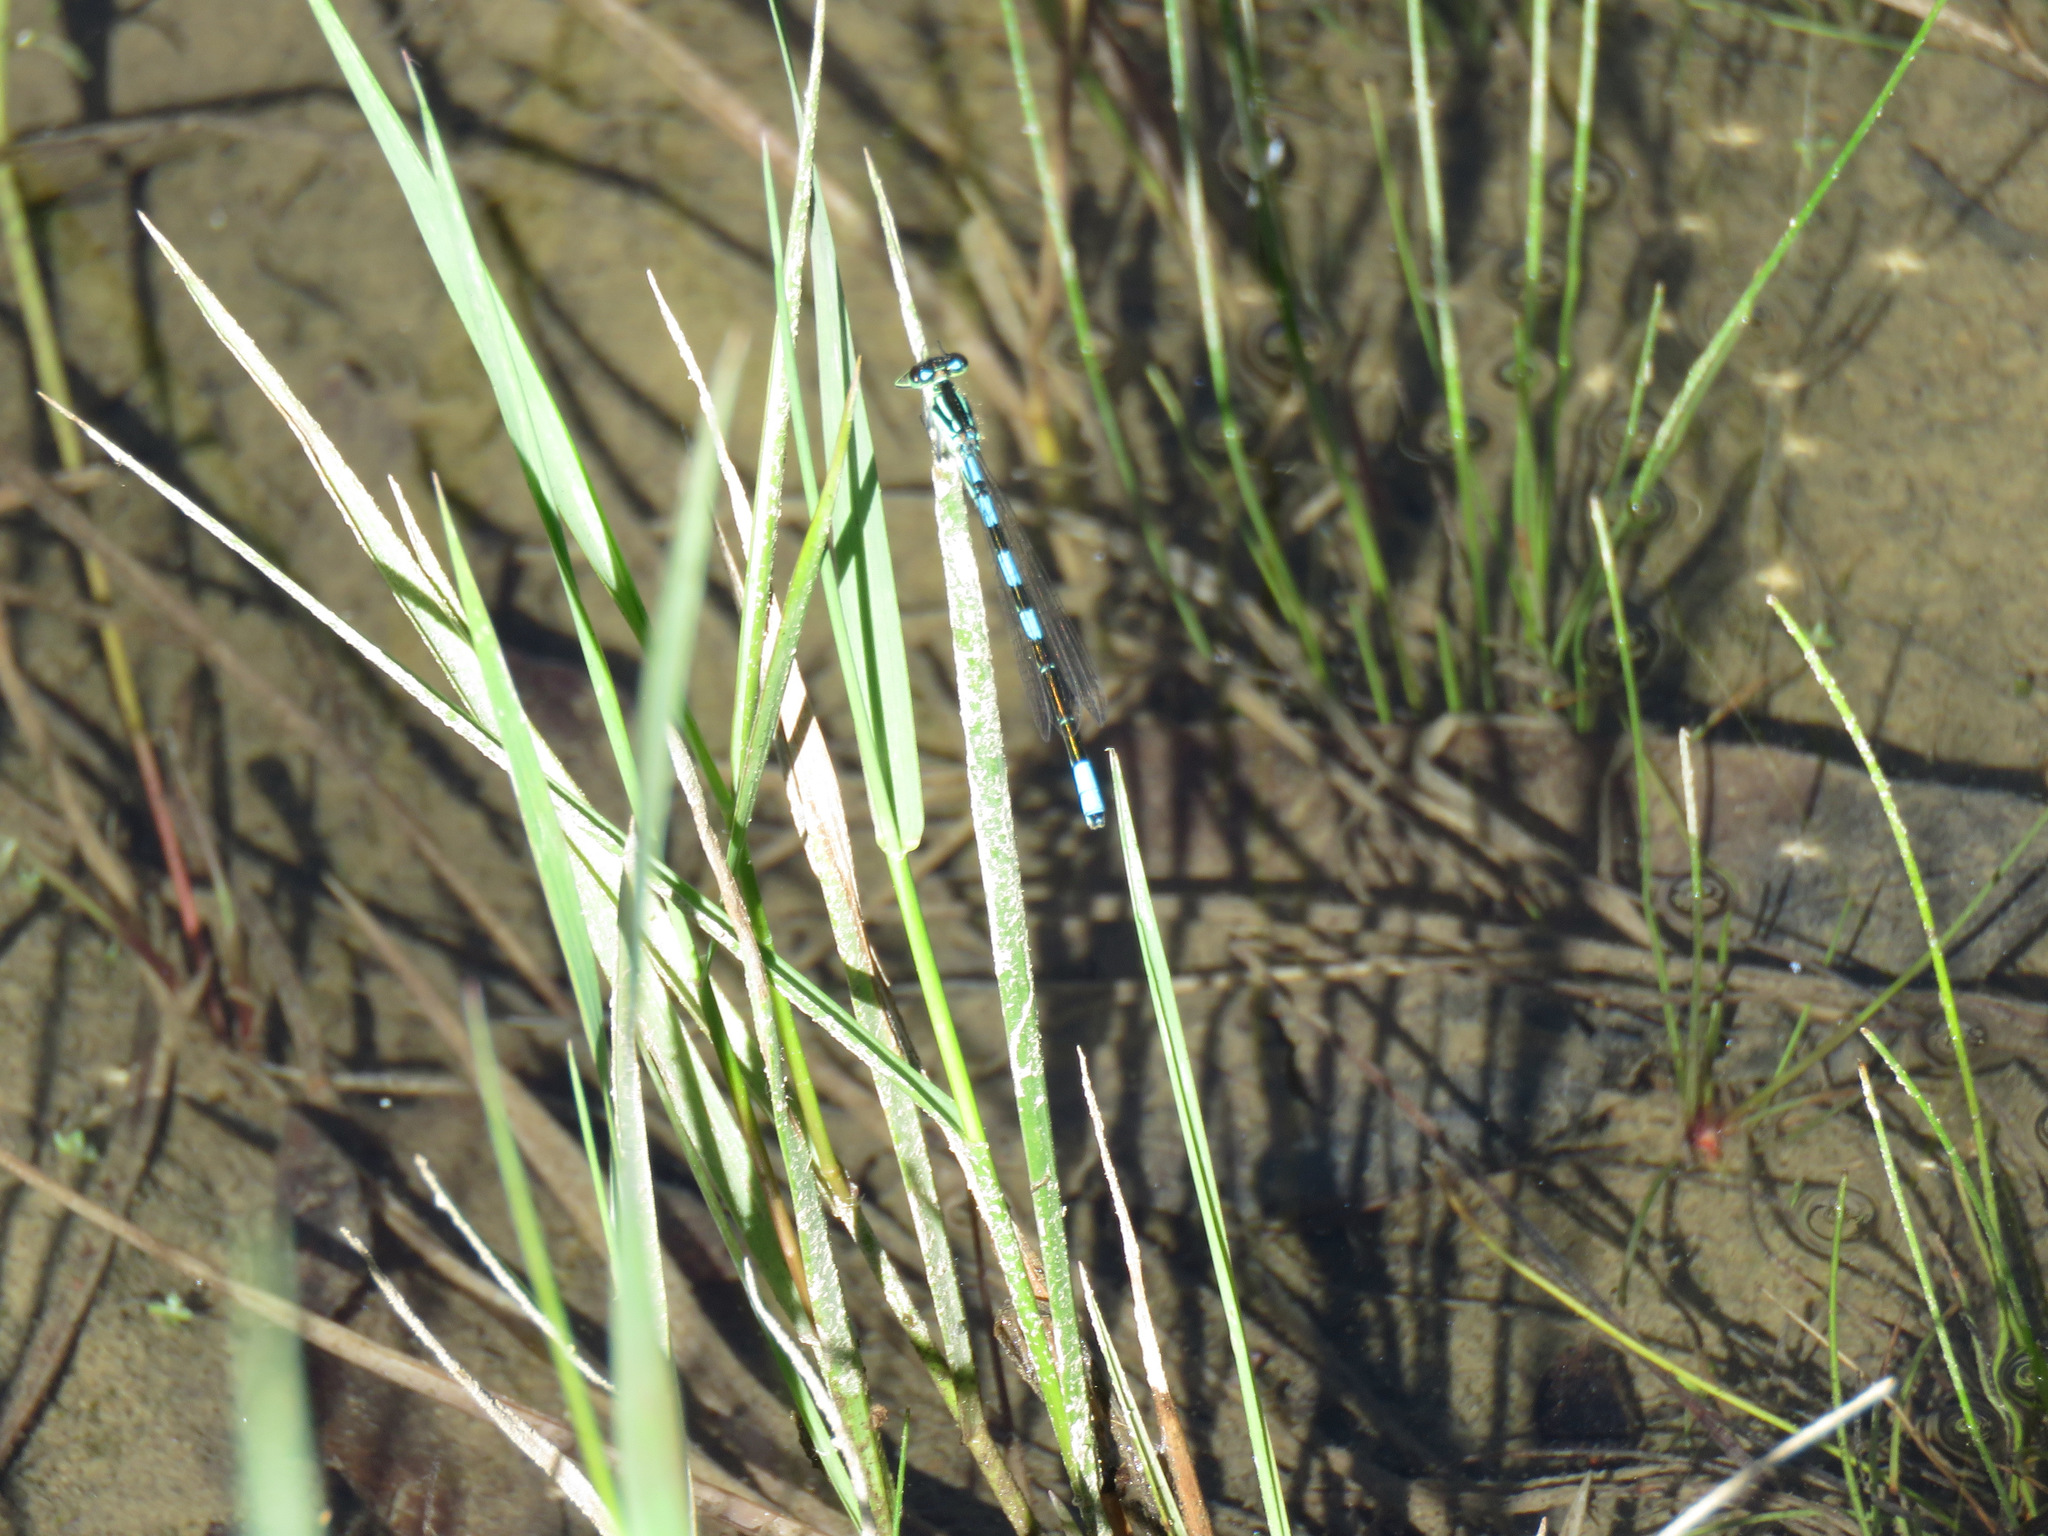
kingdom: Animalia
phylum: Arthropoda
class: Insecta
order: Odonata
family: Coenagrionidae
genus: Coenagrion
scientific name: Coenagrion resolutum
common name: Taiga bluet
